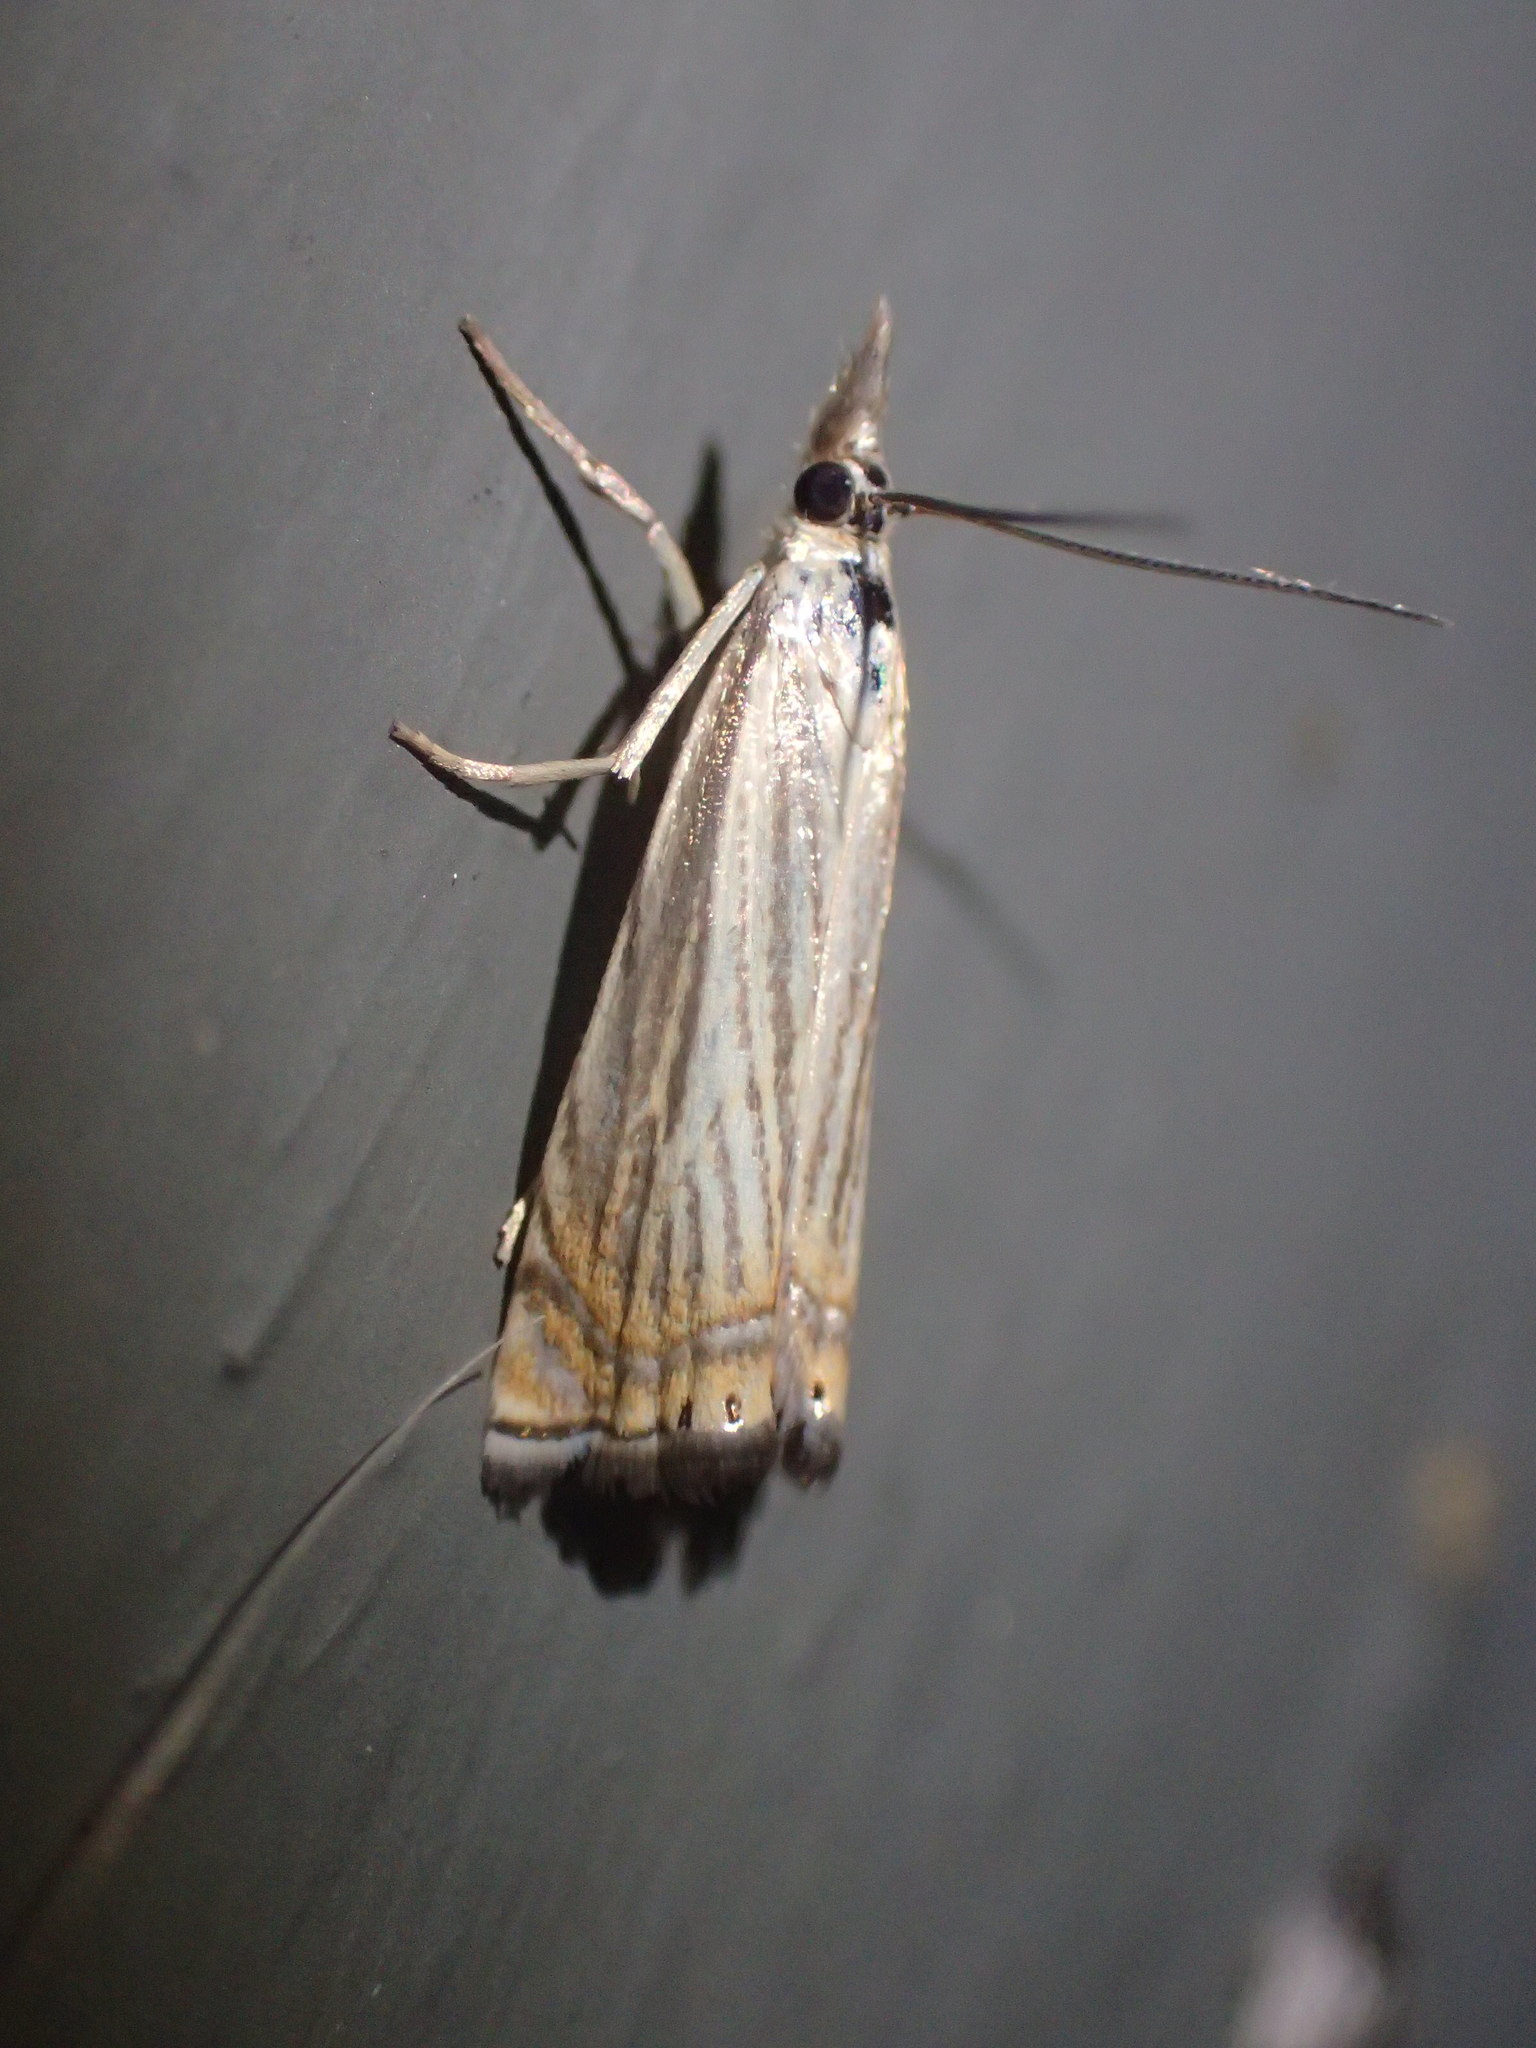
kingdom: Animalia
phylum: Arthropoda
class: Insecta
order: Lepidoptera
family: Crambidae
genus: Chrysoteuchia
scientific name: Chrysoteuchia topiarius
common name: Topiary grass-veneer
